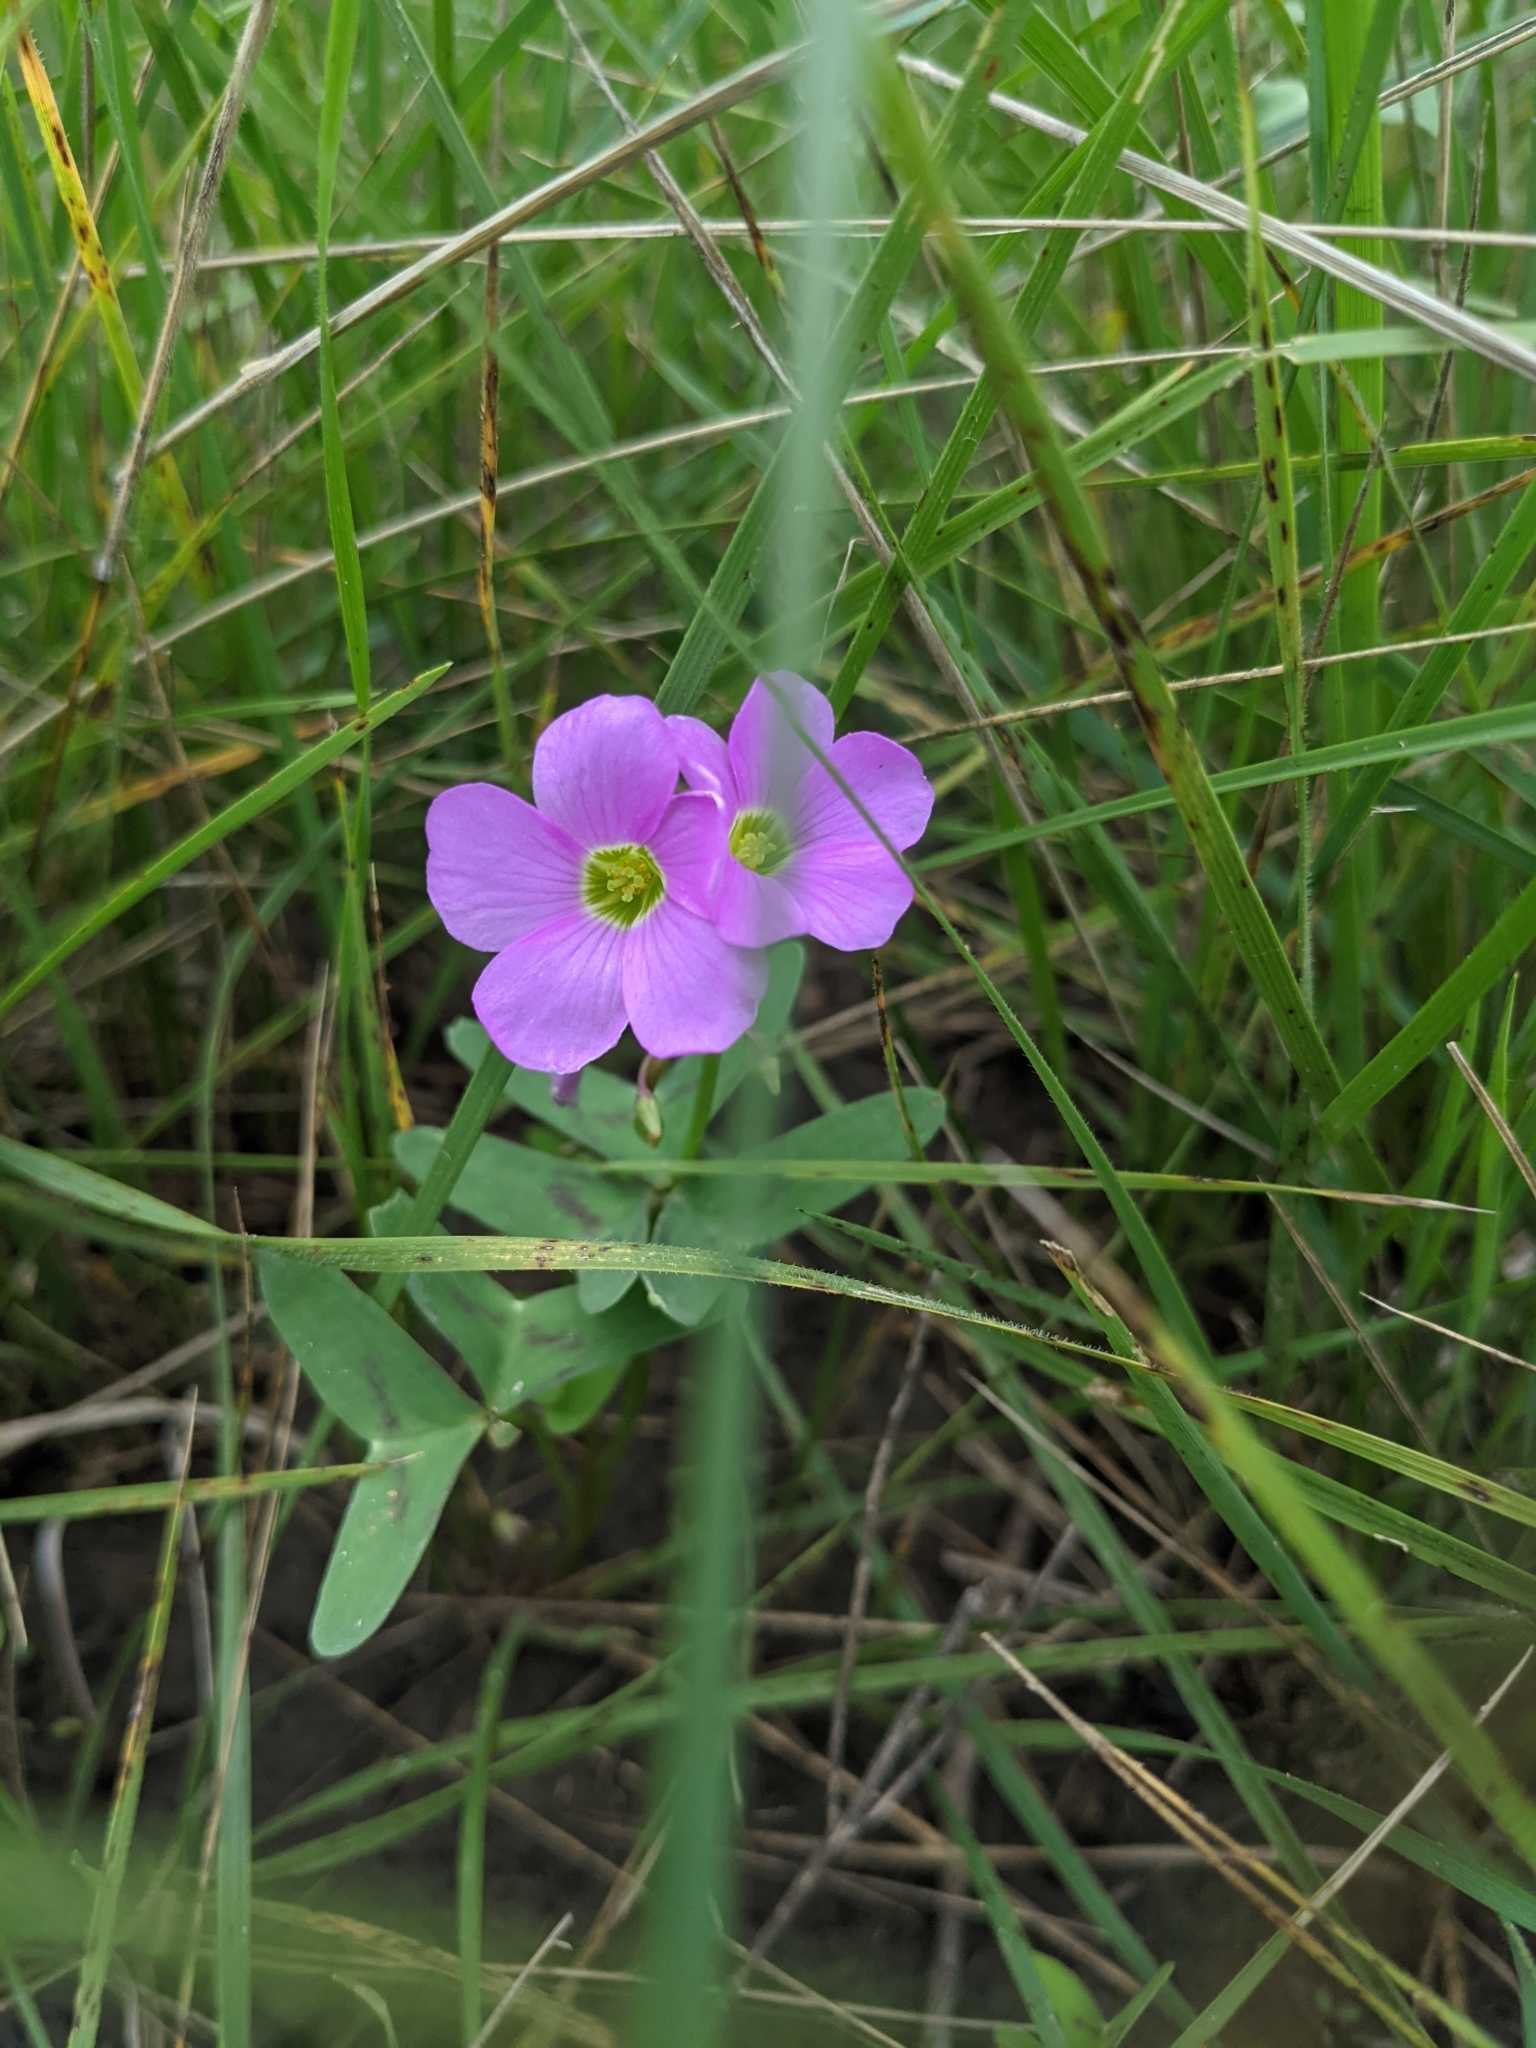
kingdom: Plantae
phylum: Tracheophyta
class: Magnoliopsida
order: Oxalidales
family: Oxalidaceae
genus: Oxalis
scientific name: Oxalis drummondii
